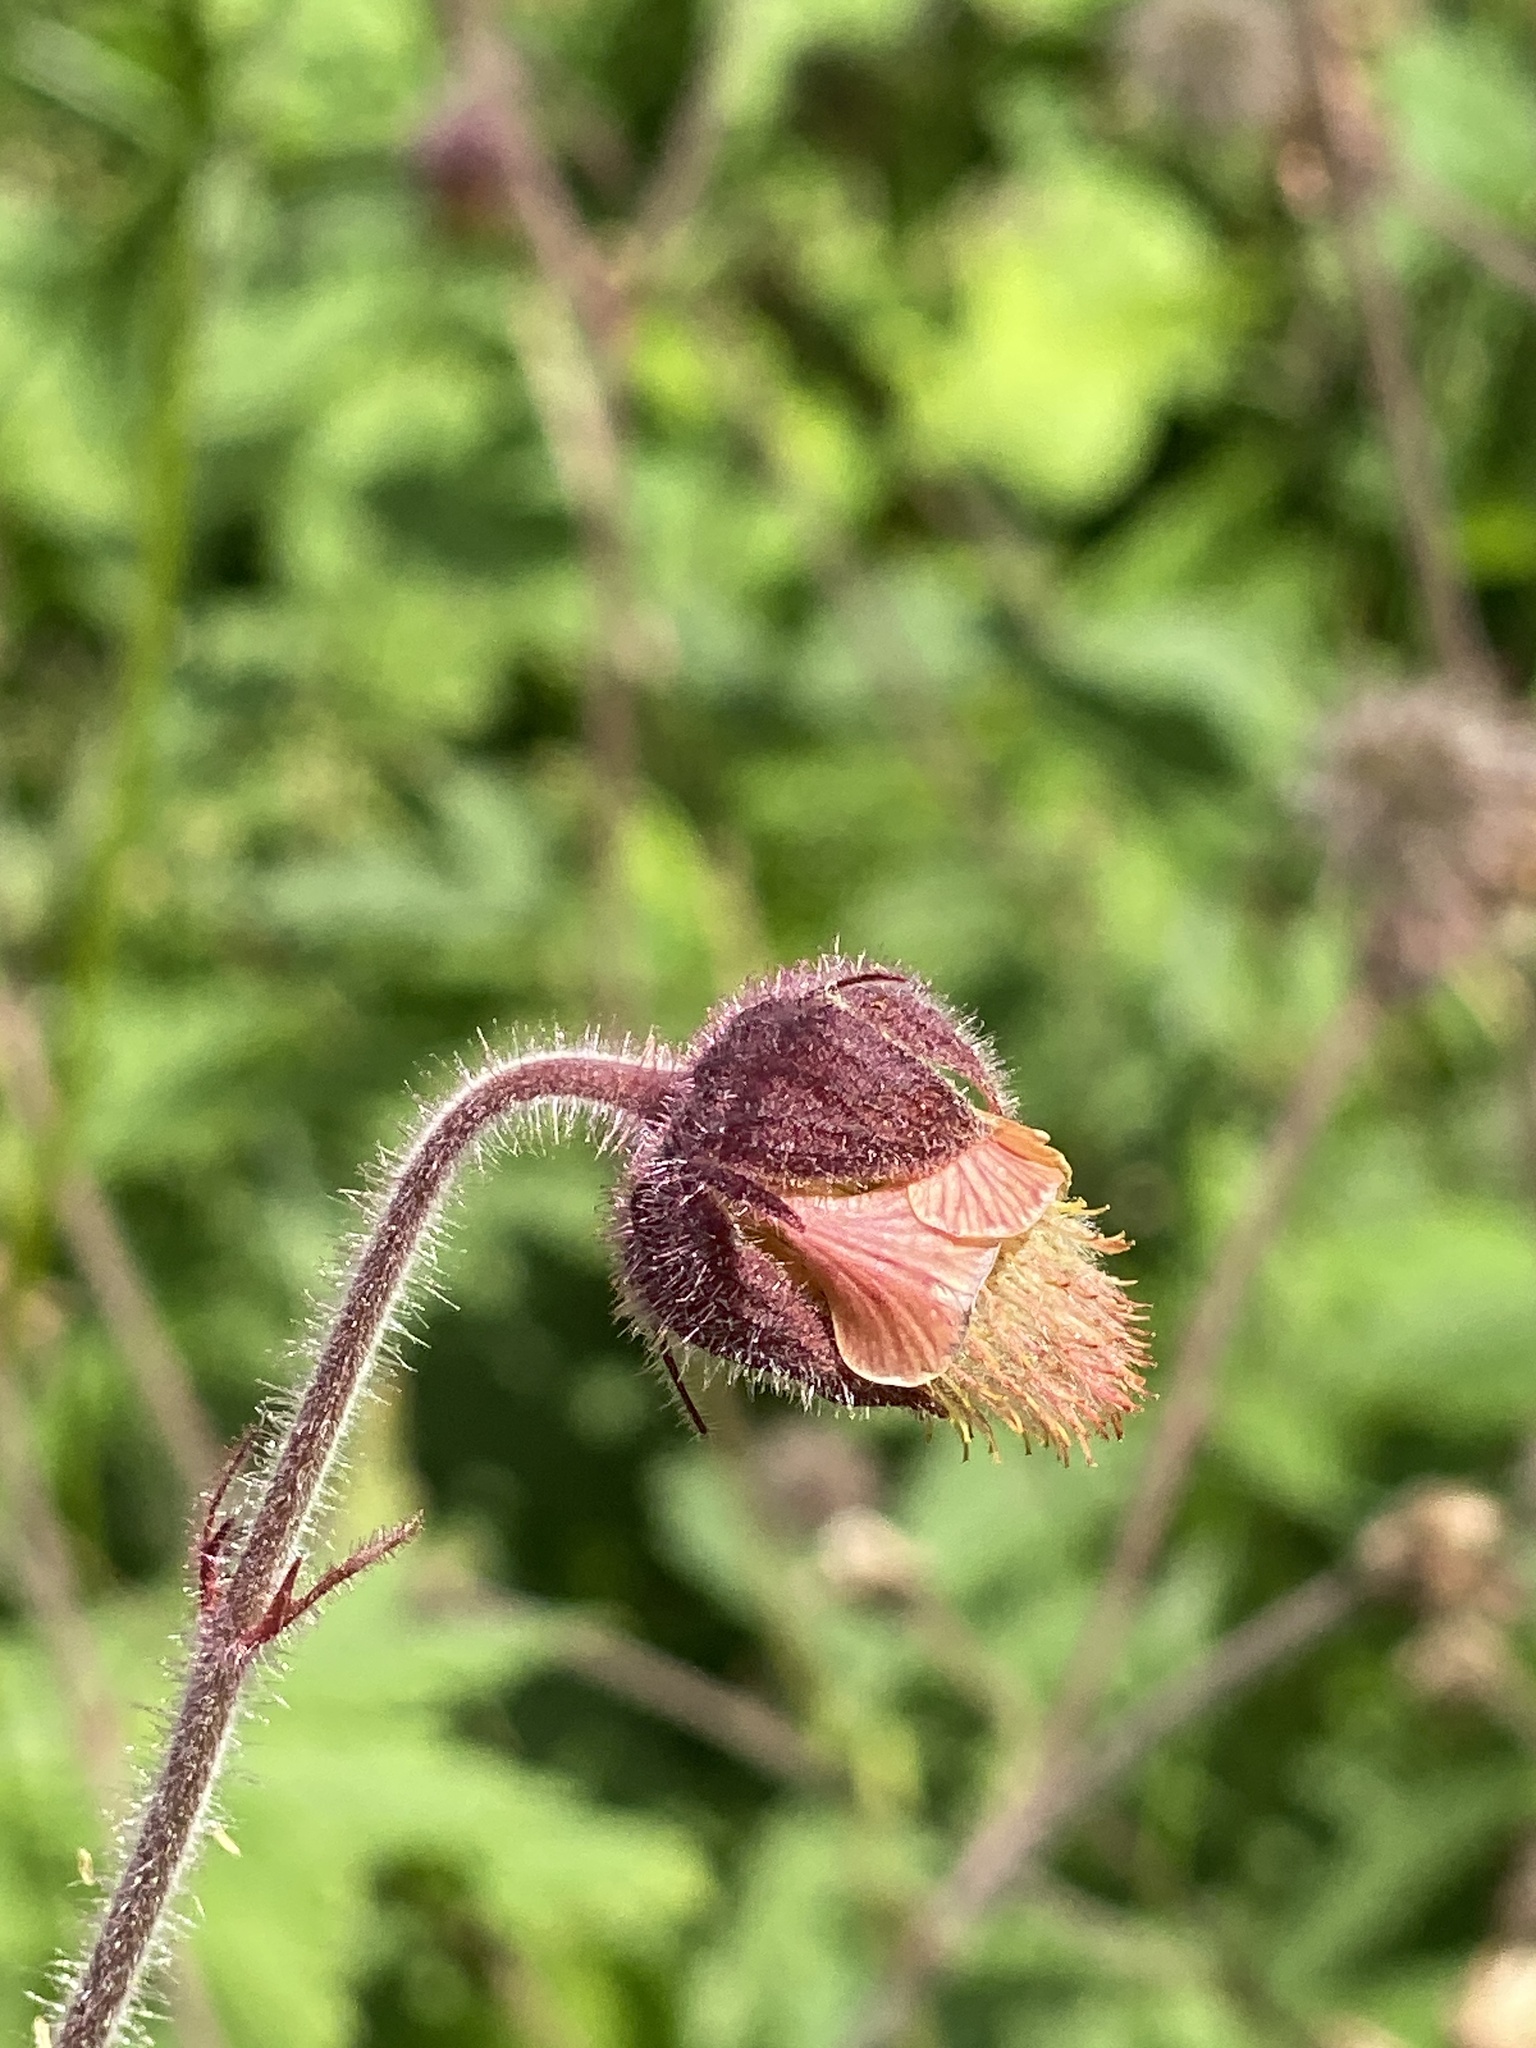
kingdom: Plantae
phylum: Tracheophyta
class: Magnoliopsida
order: Rosales
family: Rosaceae
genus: Geum
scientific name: Geum rivale
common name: Water avens
